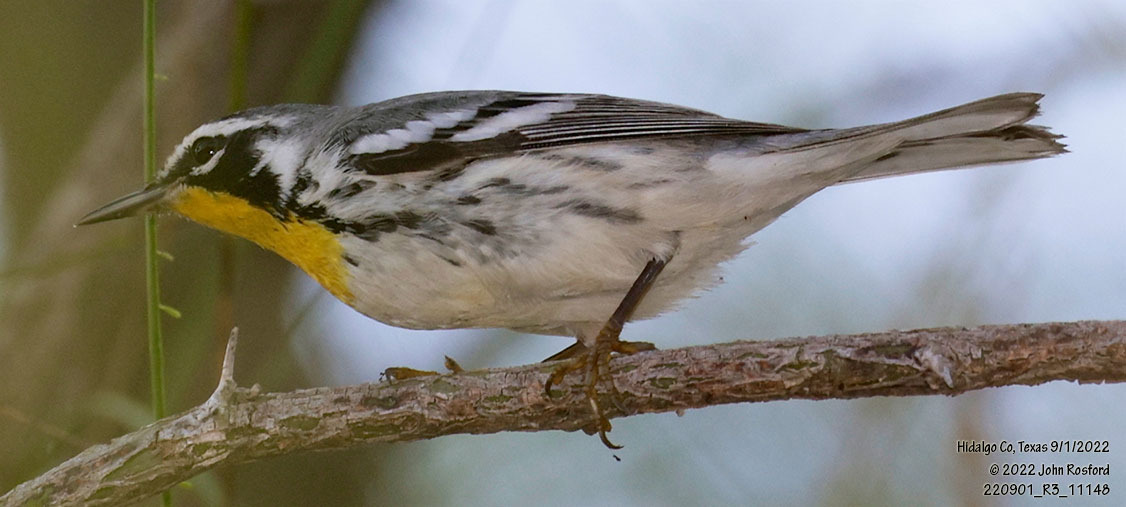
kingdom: Animalia
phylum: Chordata
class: Aves
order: Passeriformes
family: Parulidae
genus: Setophaga
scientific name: Setophaga dominica
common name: Yellow-throated warbler
